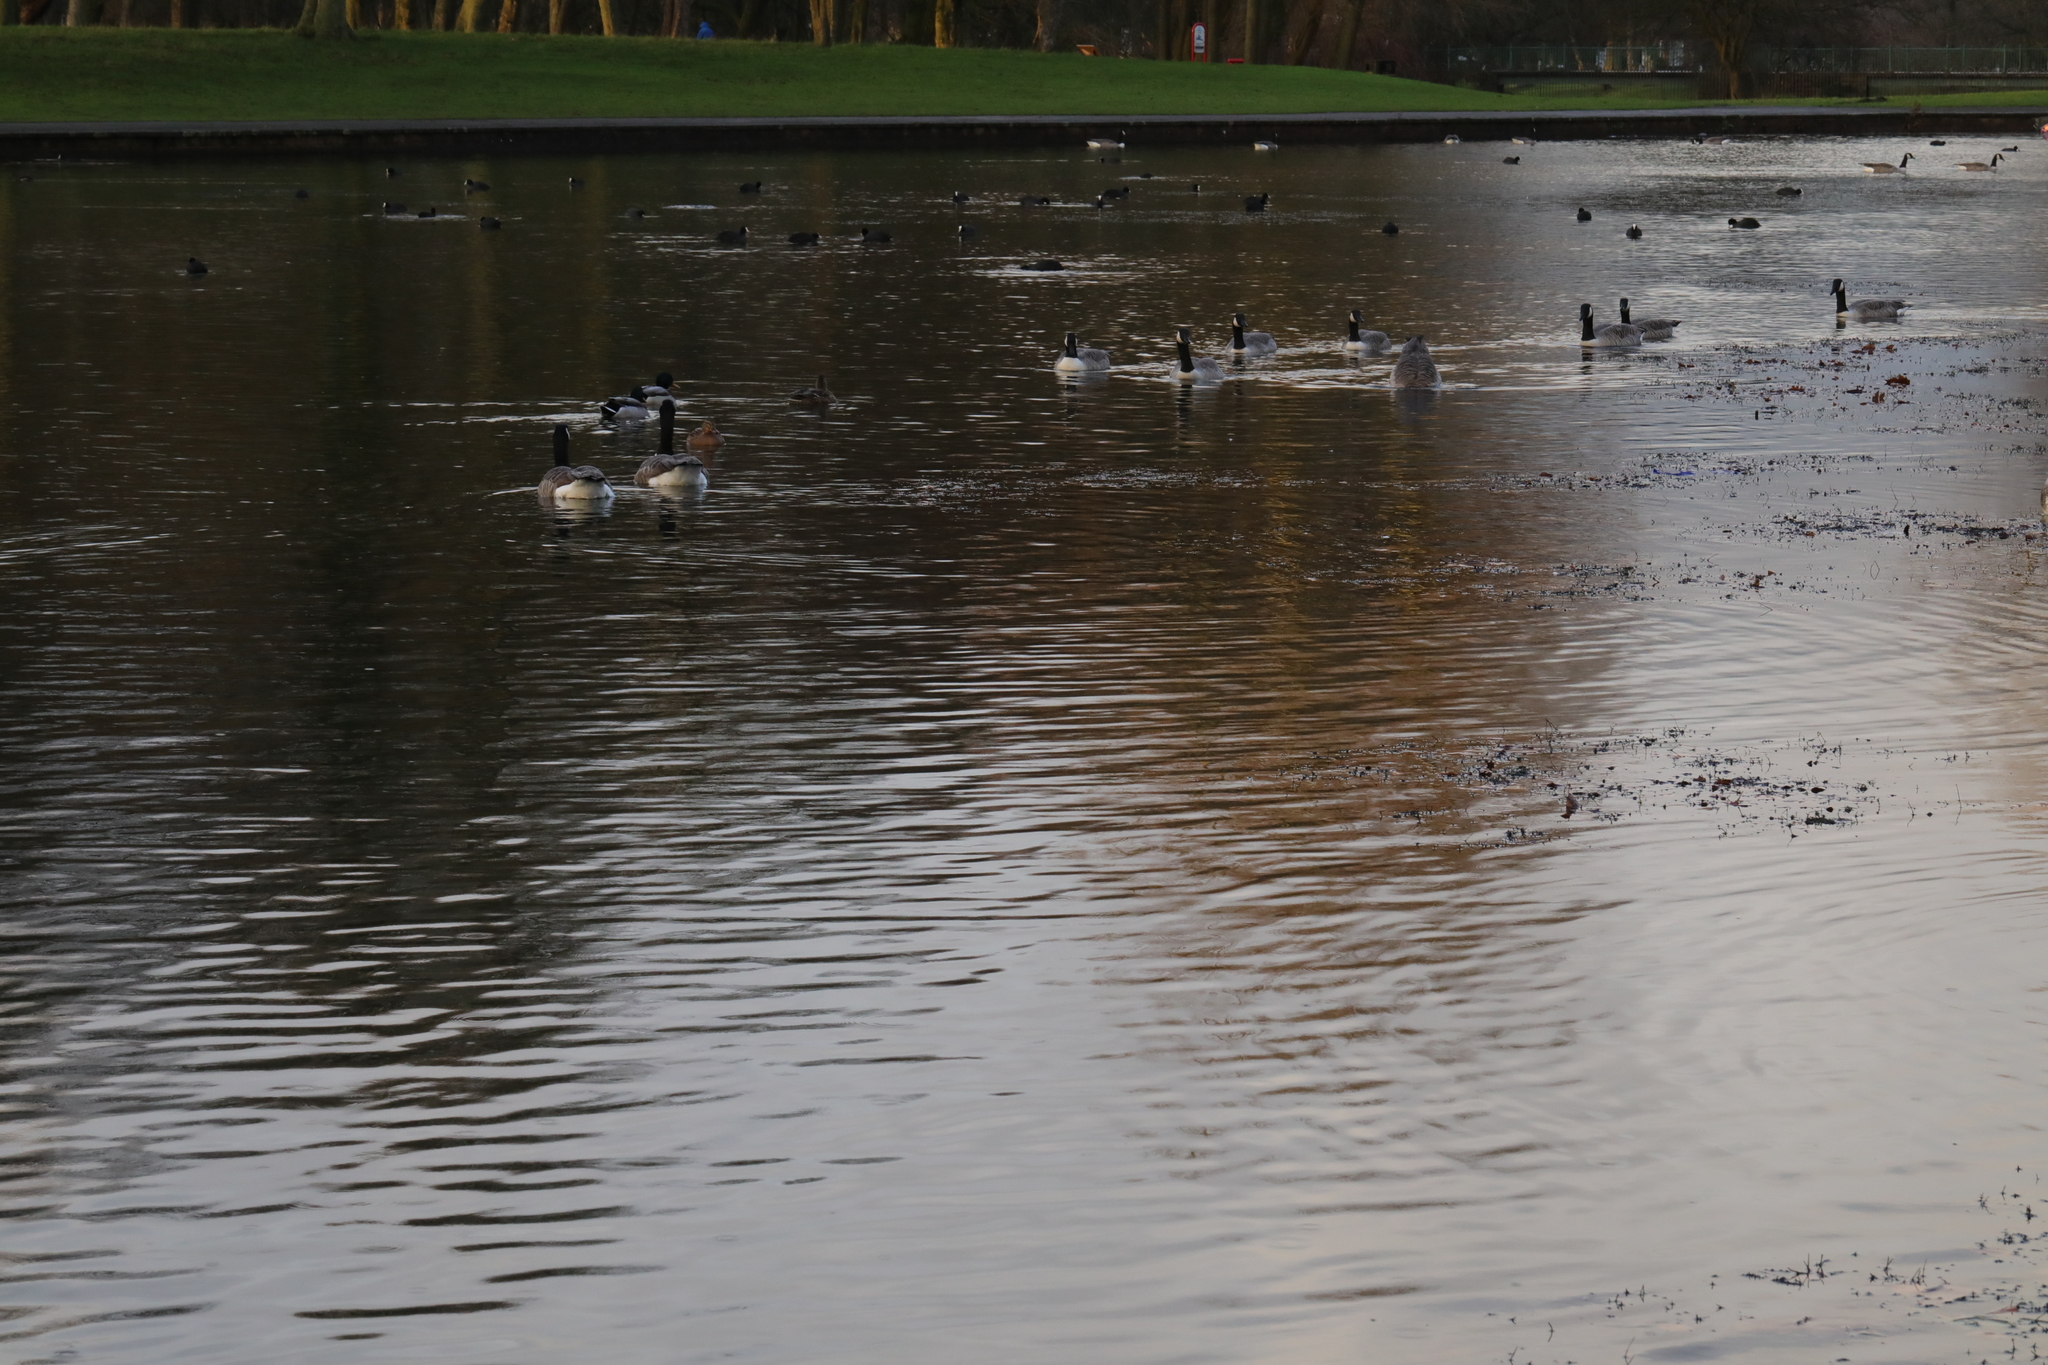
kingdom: Animalia
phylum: Chordata
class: Aves
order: Anseriformes
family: Anatidae
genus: Branta
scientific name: Branta canadensis
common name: Canada goose
